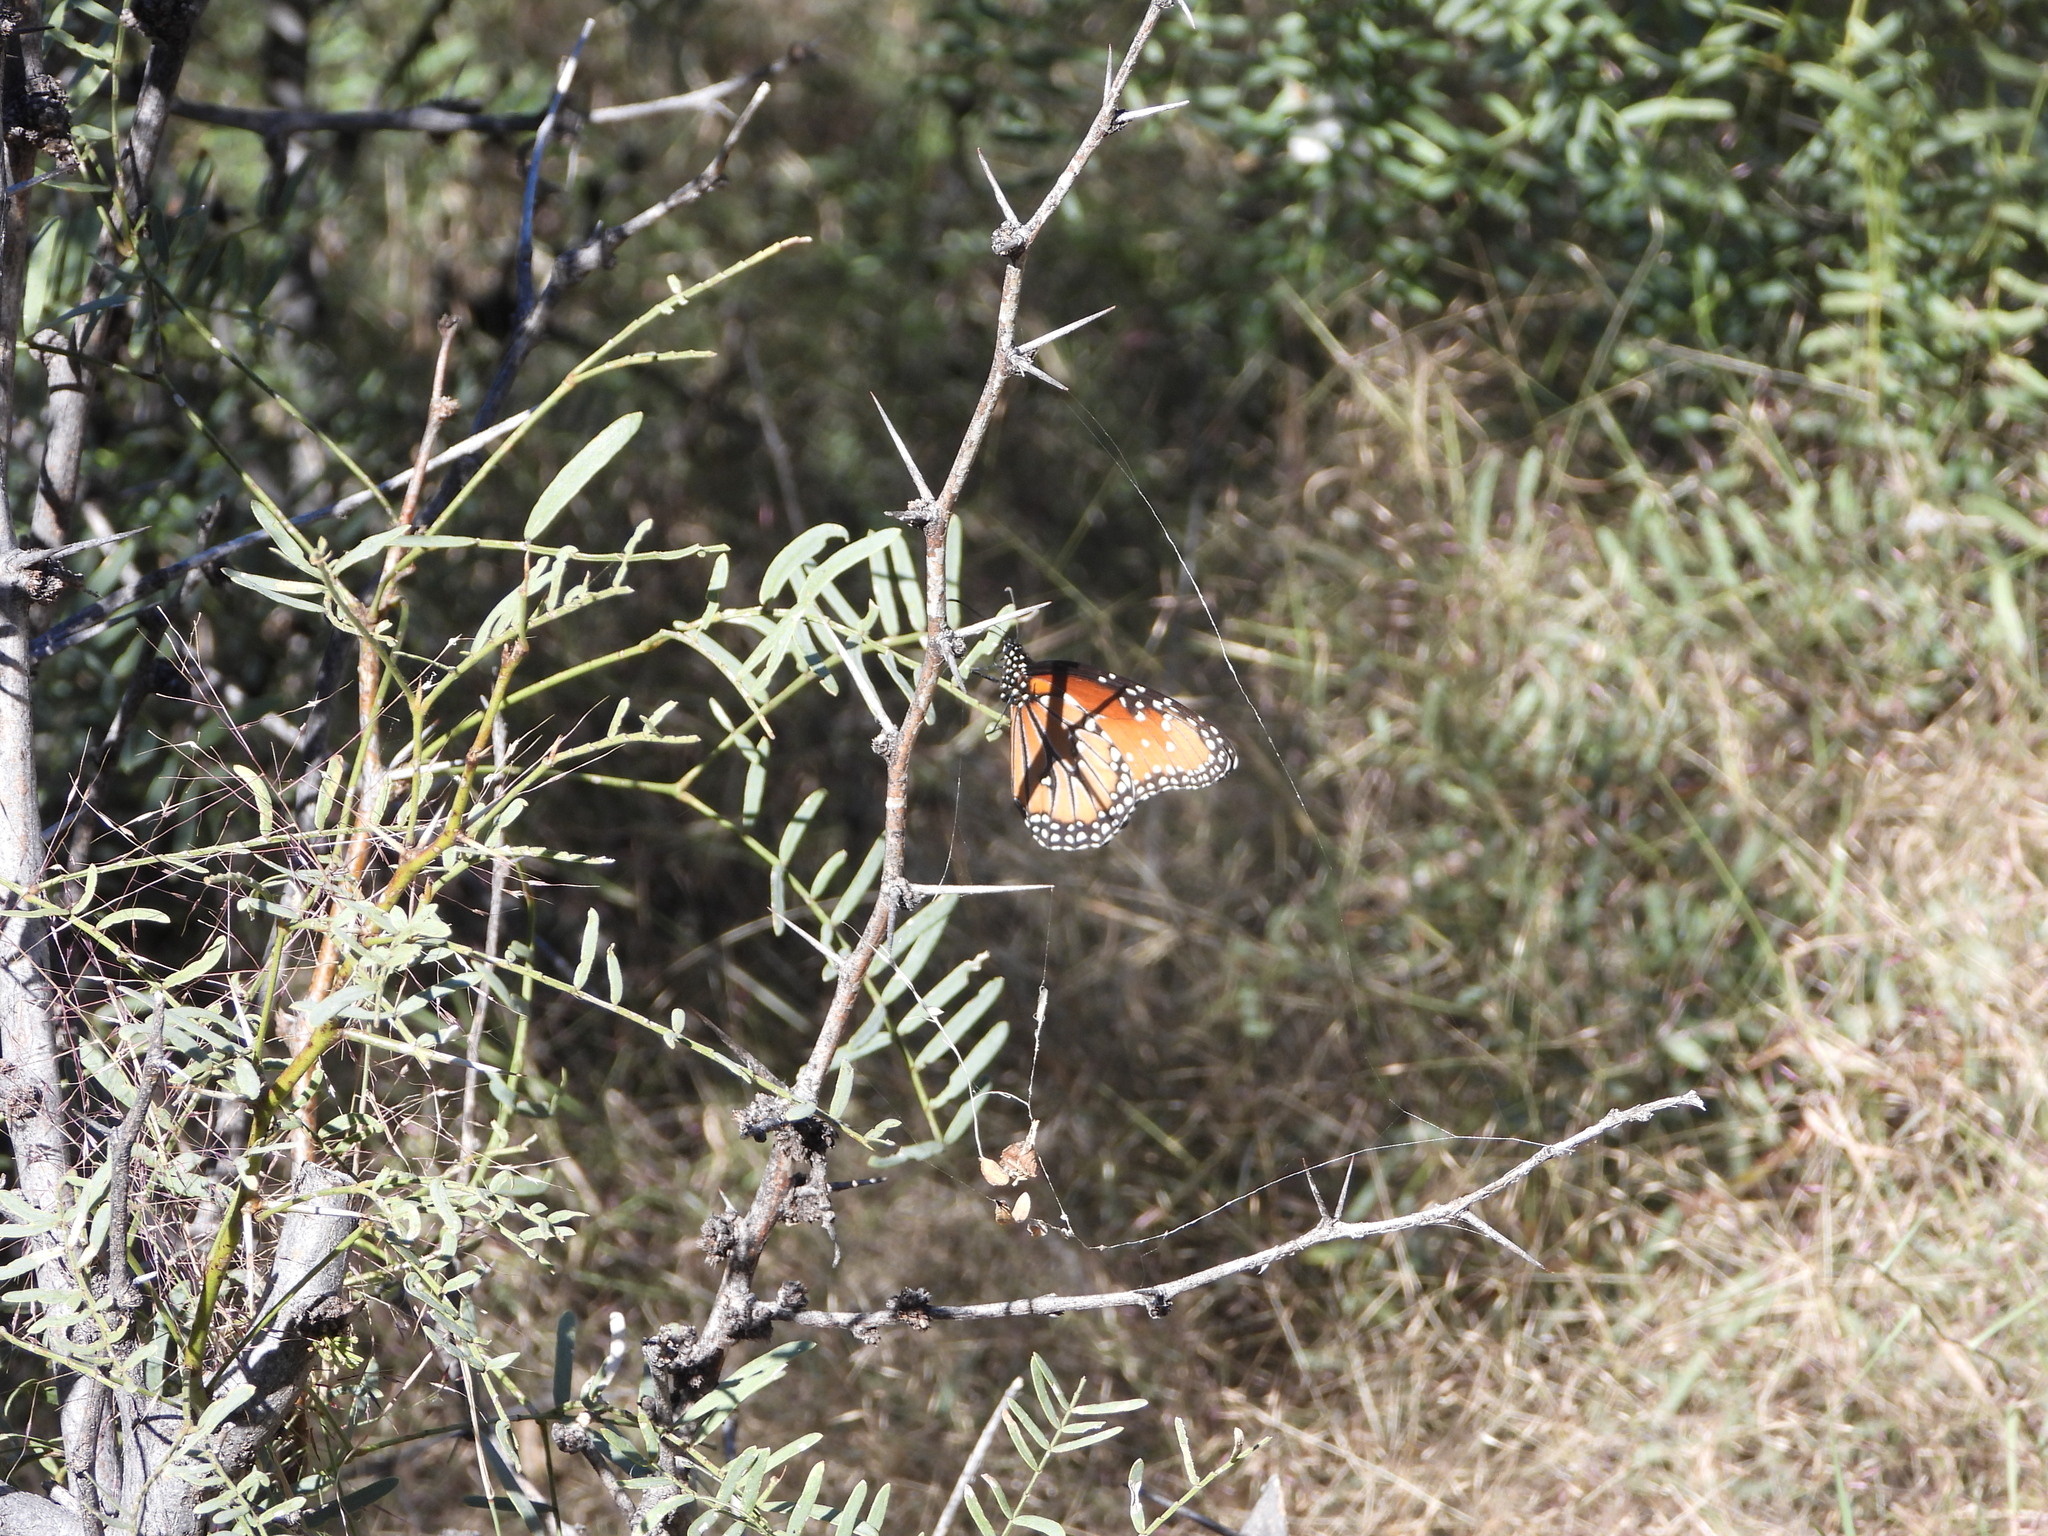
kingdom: Animalia
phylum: Arthropoda
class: Insecta
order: Lepidoptera
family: Nymphalidae
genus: Danaus
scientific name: Danaus gilippus
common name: Queen
